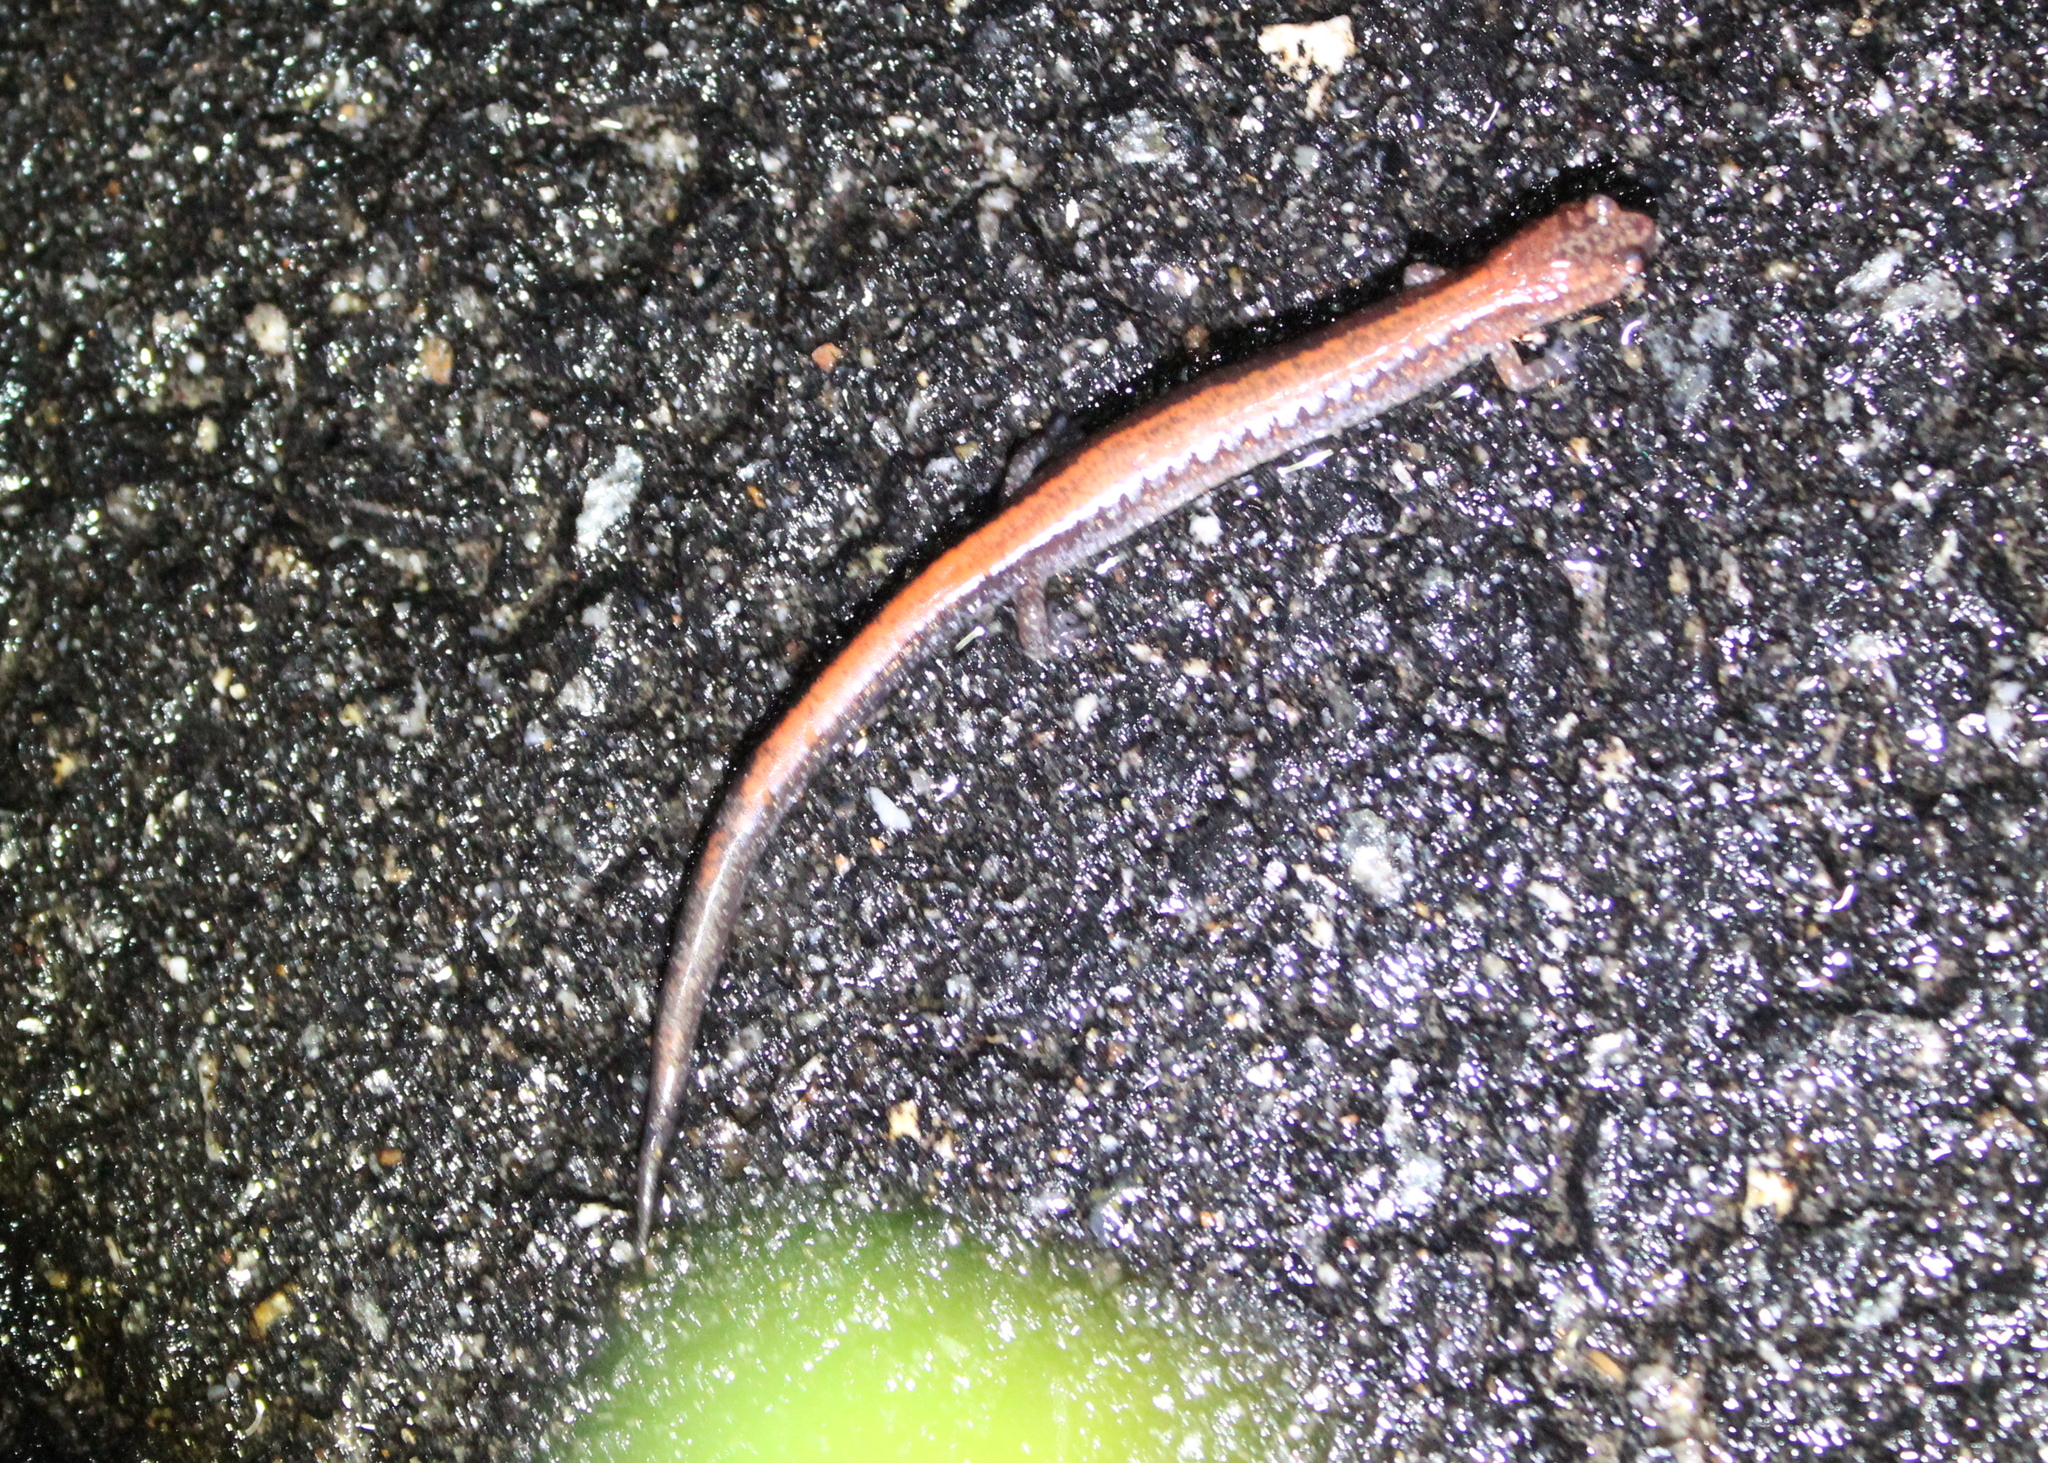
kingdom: Animalia
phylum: Chordata
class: Amphibia
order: Caudata
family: Plethodontidae
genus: Plethodon
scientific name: Plethodon cinereus
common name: Redback salamander
